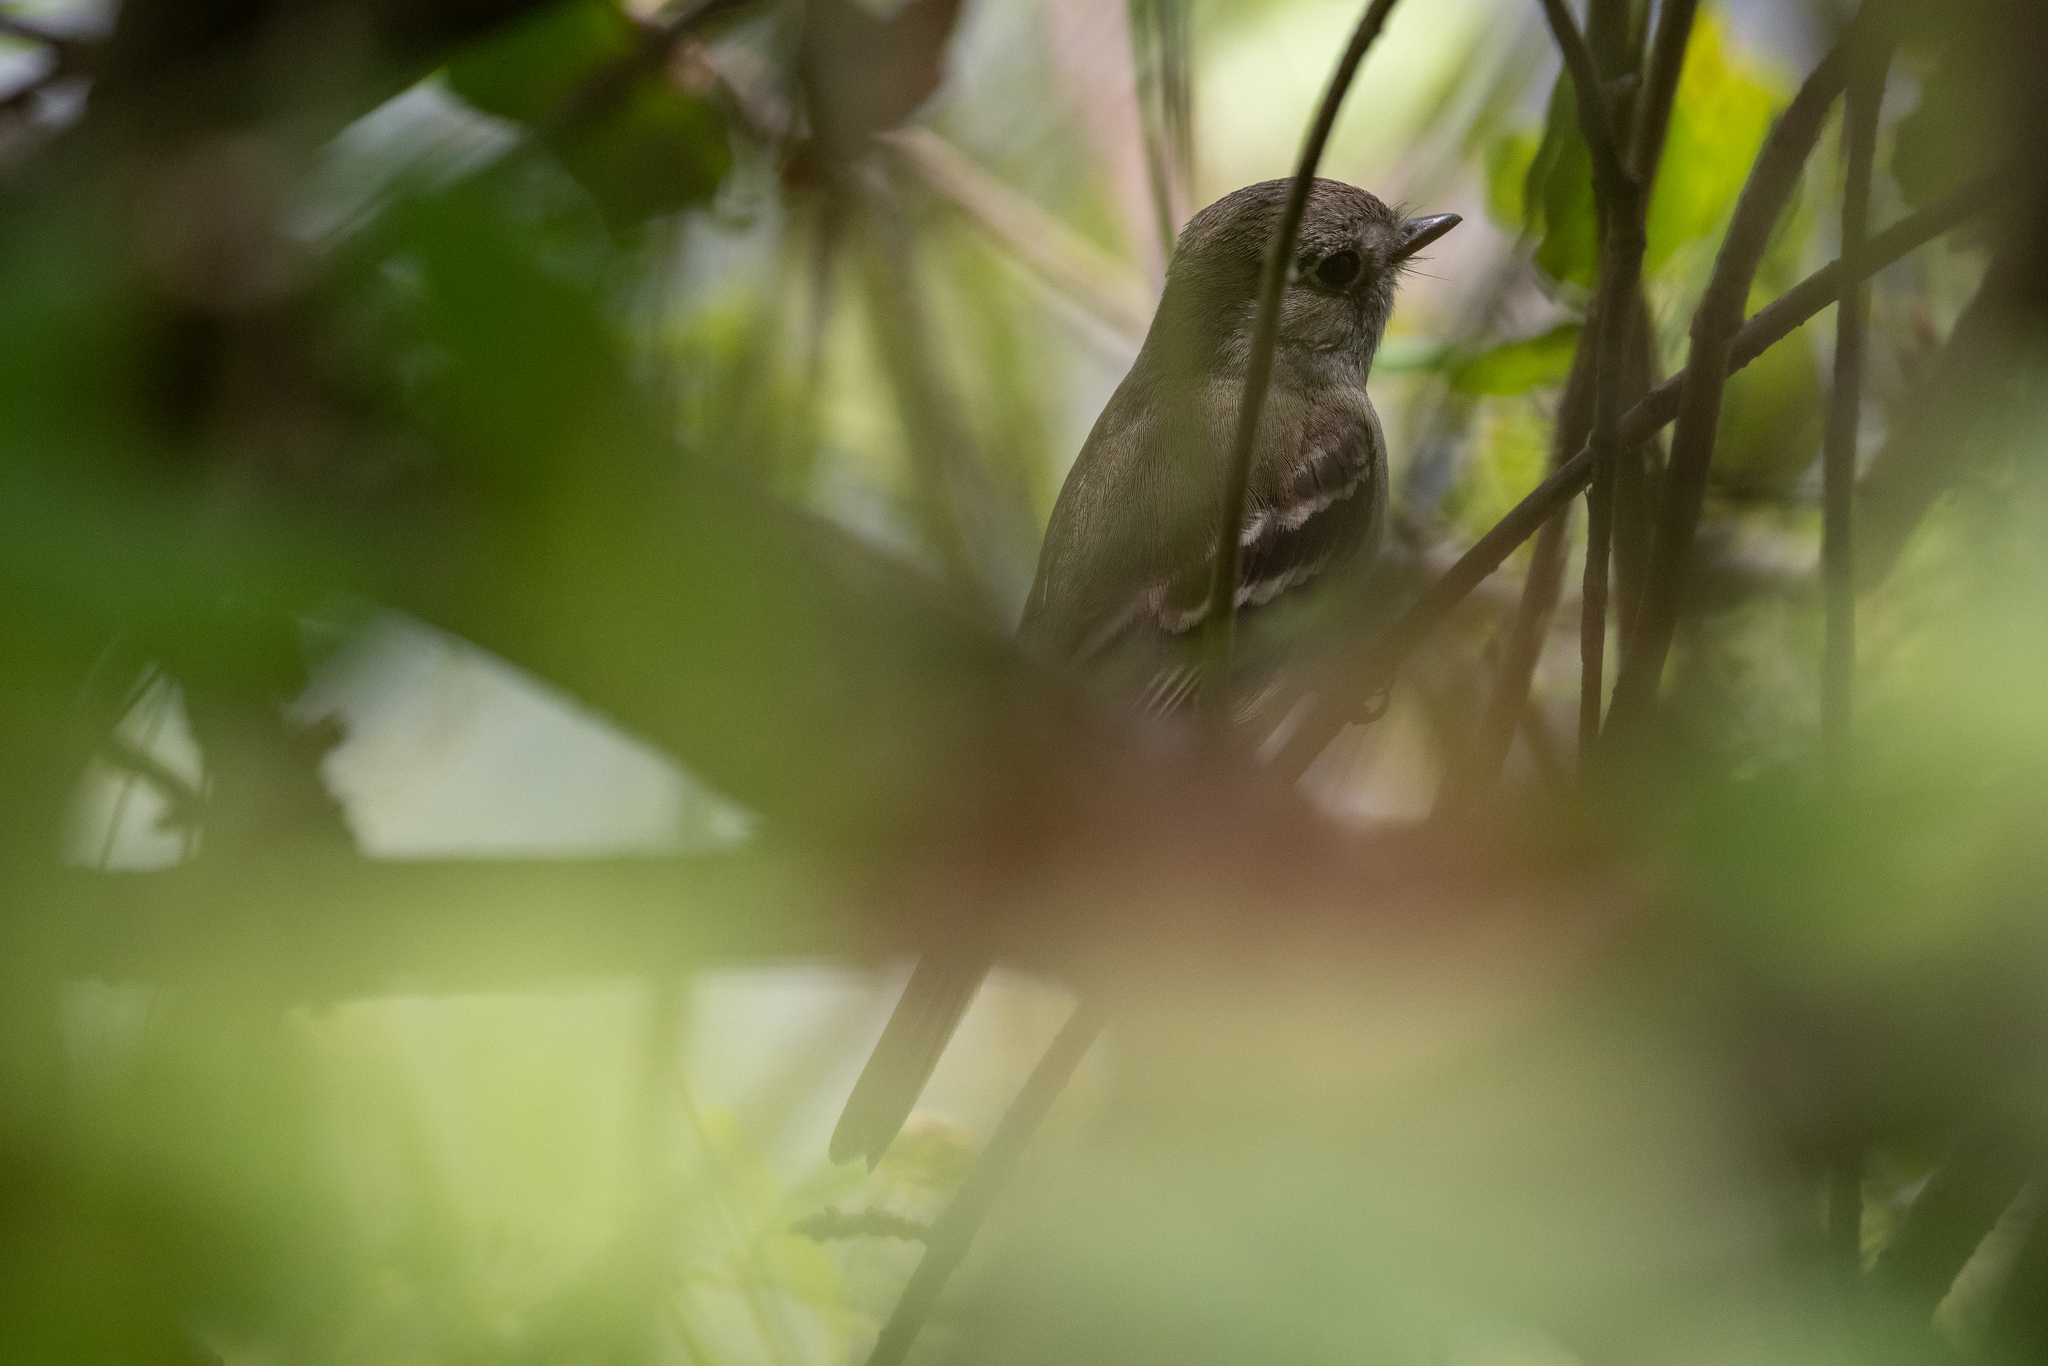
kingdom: Animalia
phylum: Chordata
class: Aves
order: Passeriformes
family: Tyrannidae
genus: Empidonax
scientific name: Empidonax hammondii
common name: Hammond's flycatcher
